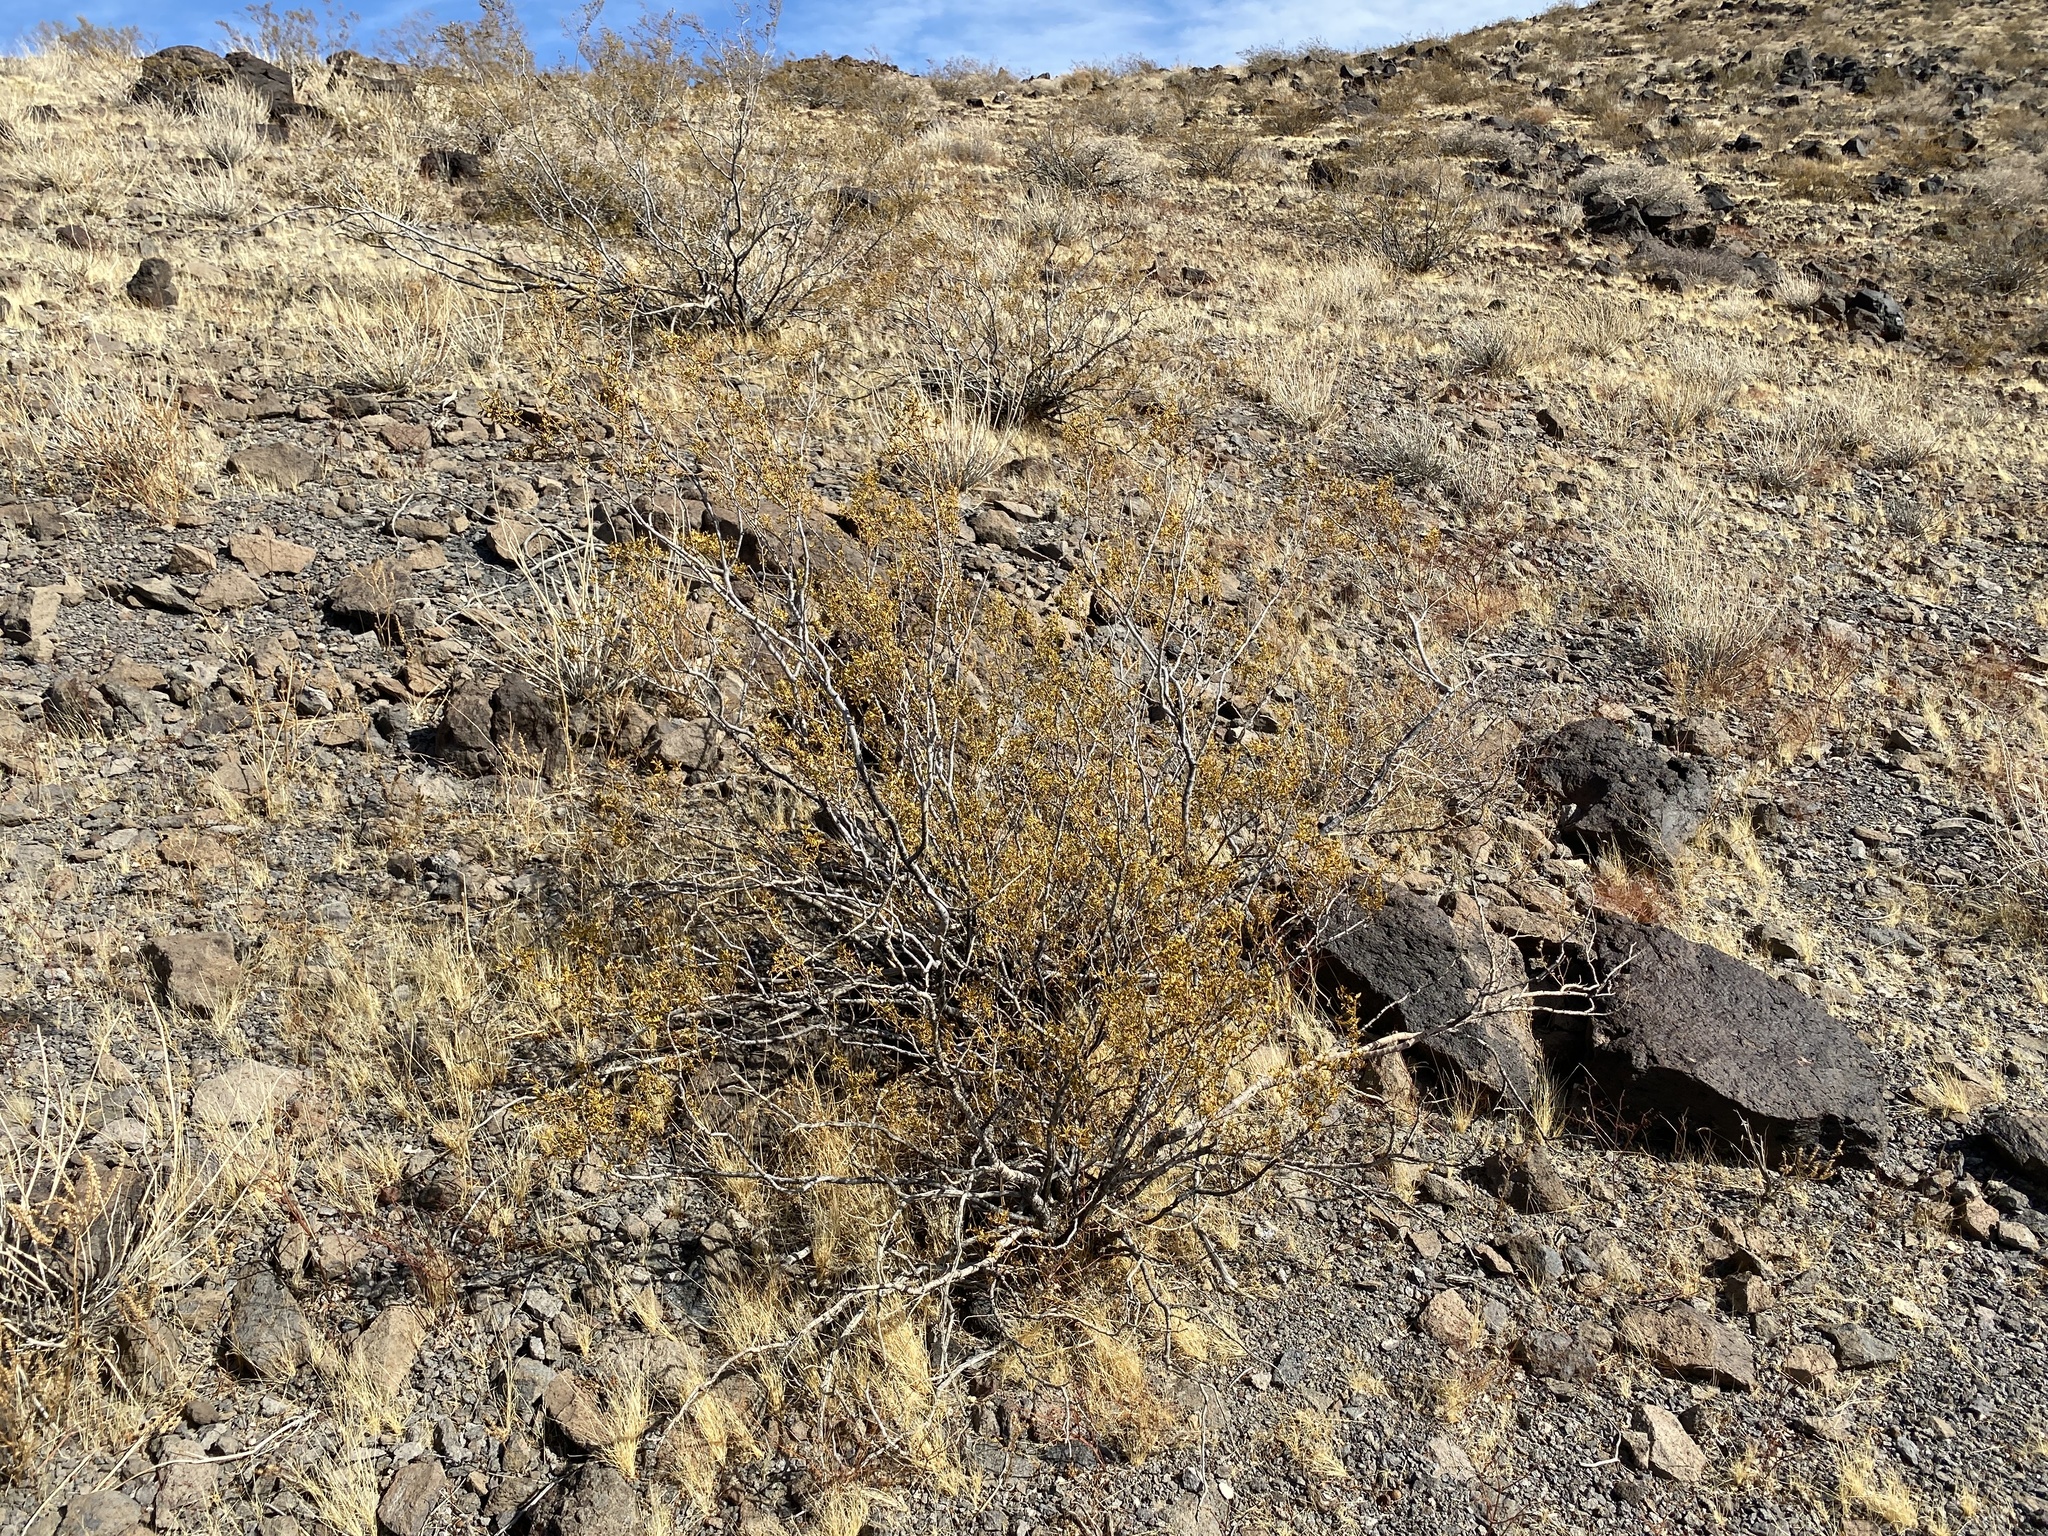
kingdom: Plantae
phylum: Tracheophyta
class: Magnoliopsida
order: Zygophyllales
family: Zygophyllaceae
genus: Larrea
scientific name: Larrea tridentata
